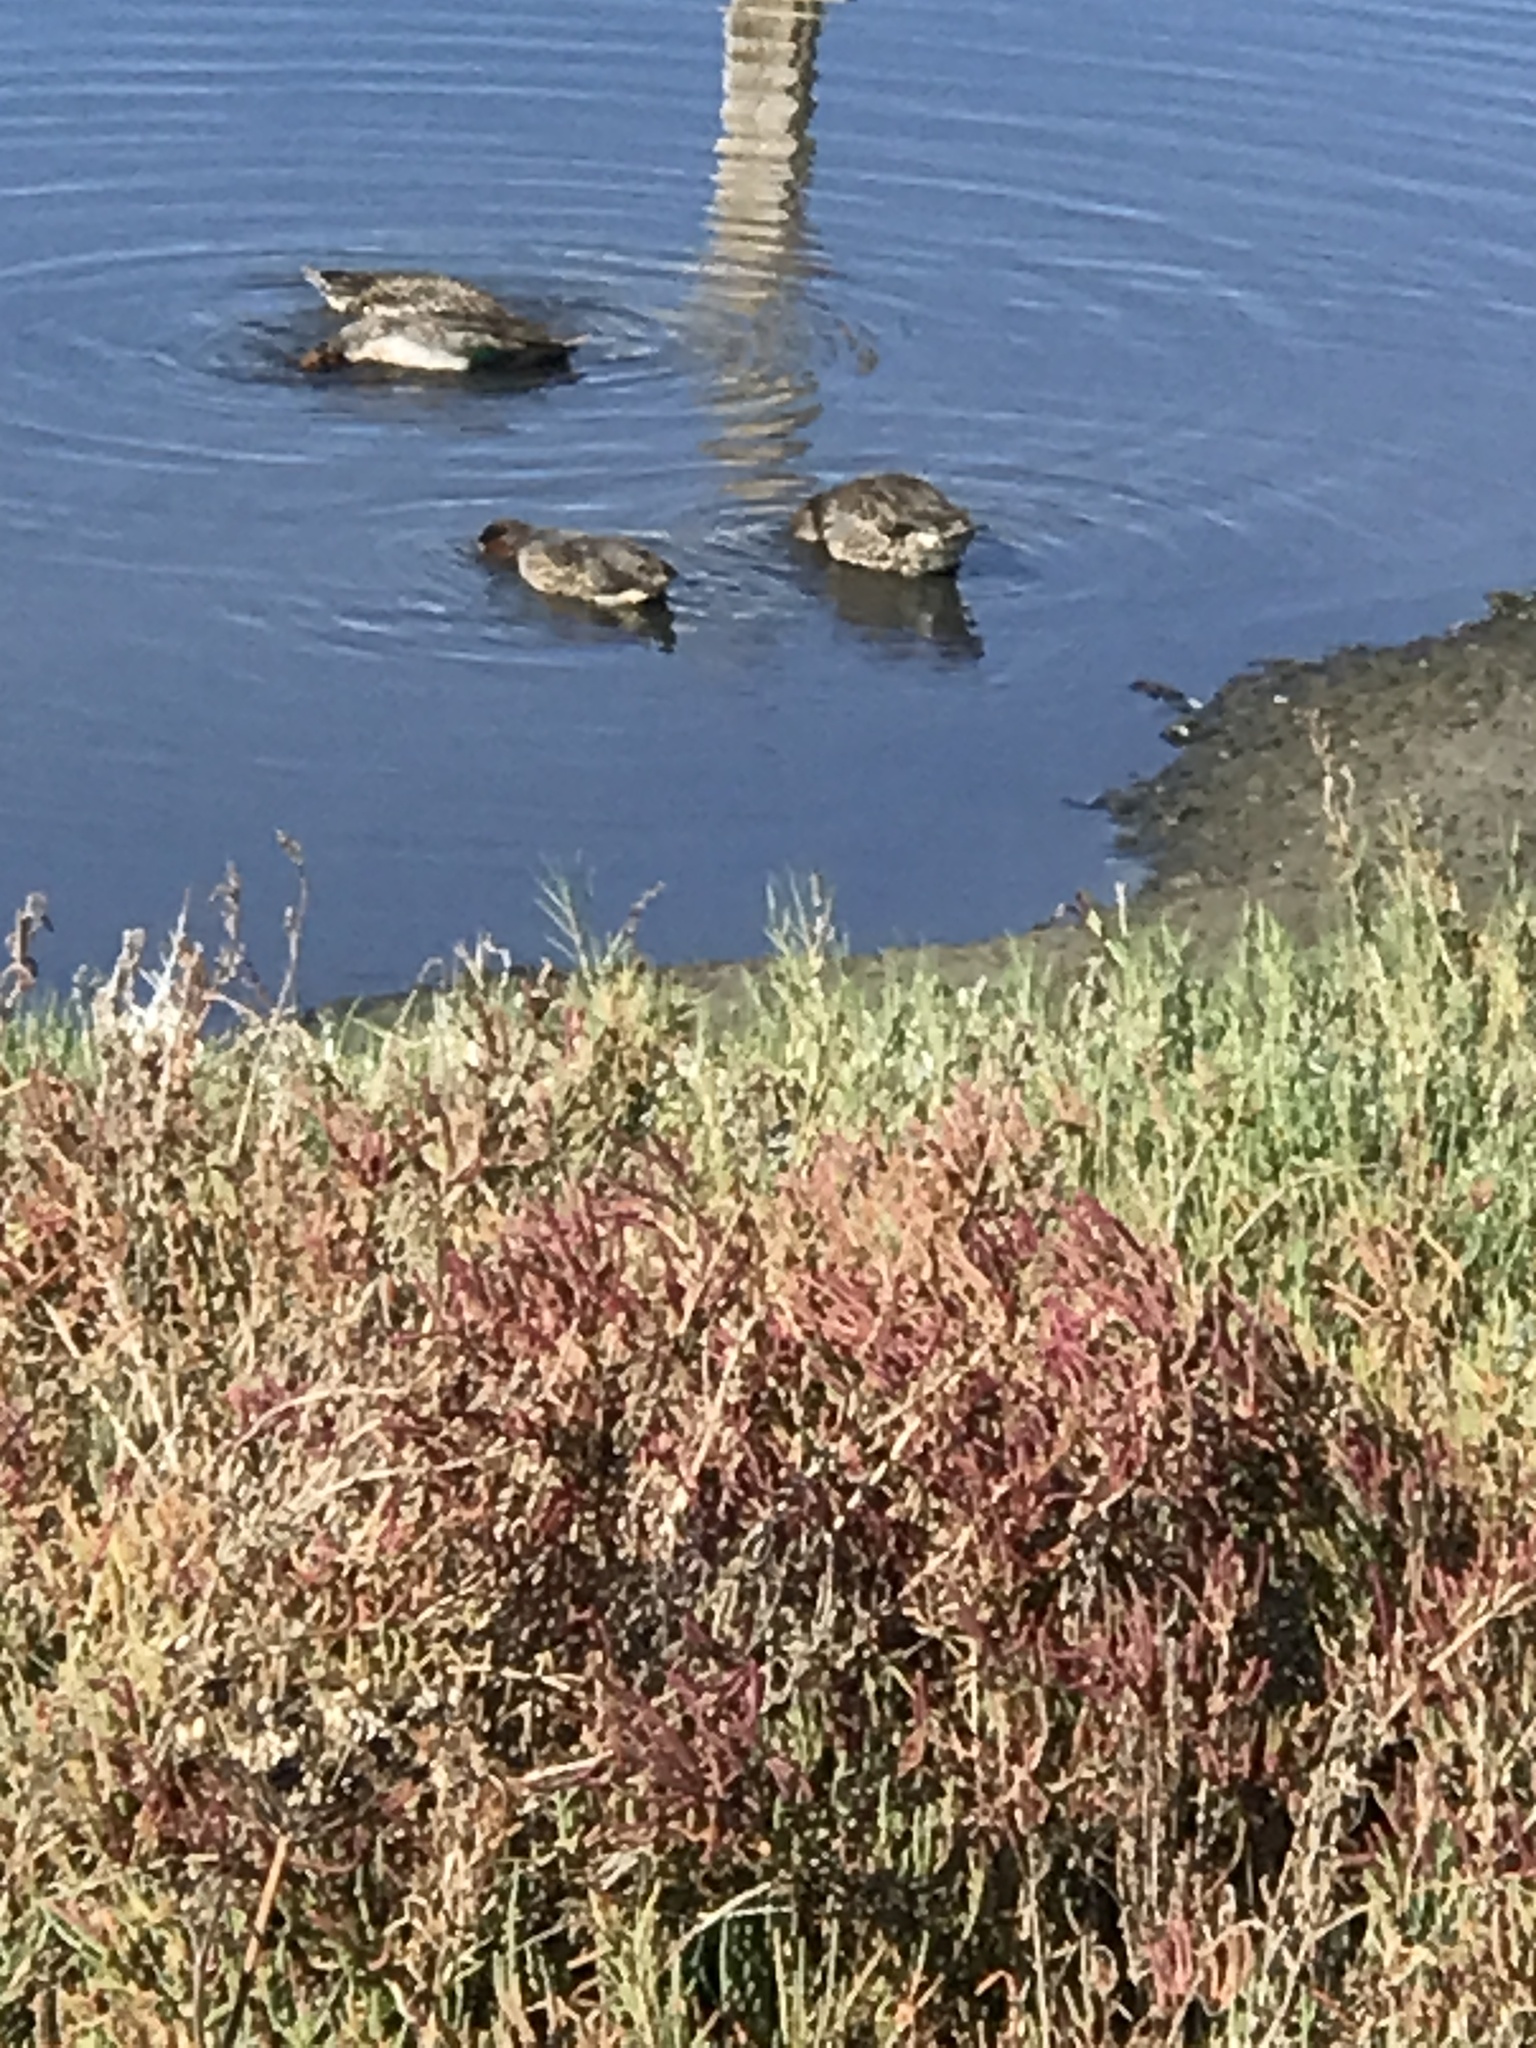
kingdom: Animalia
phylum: Chordata
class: Aves
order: Anseriformes
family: Anatidae
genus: Anas
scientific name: Anas crecca
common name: Eurasian teal
